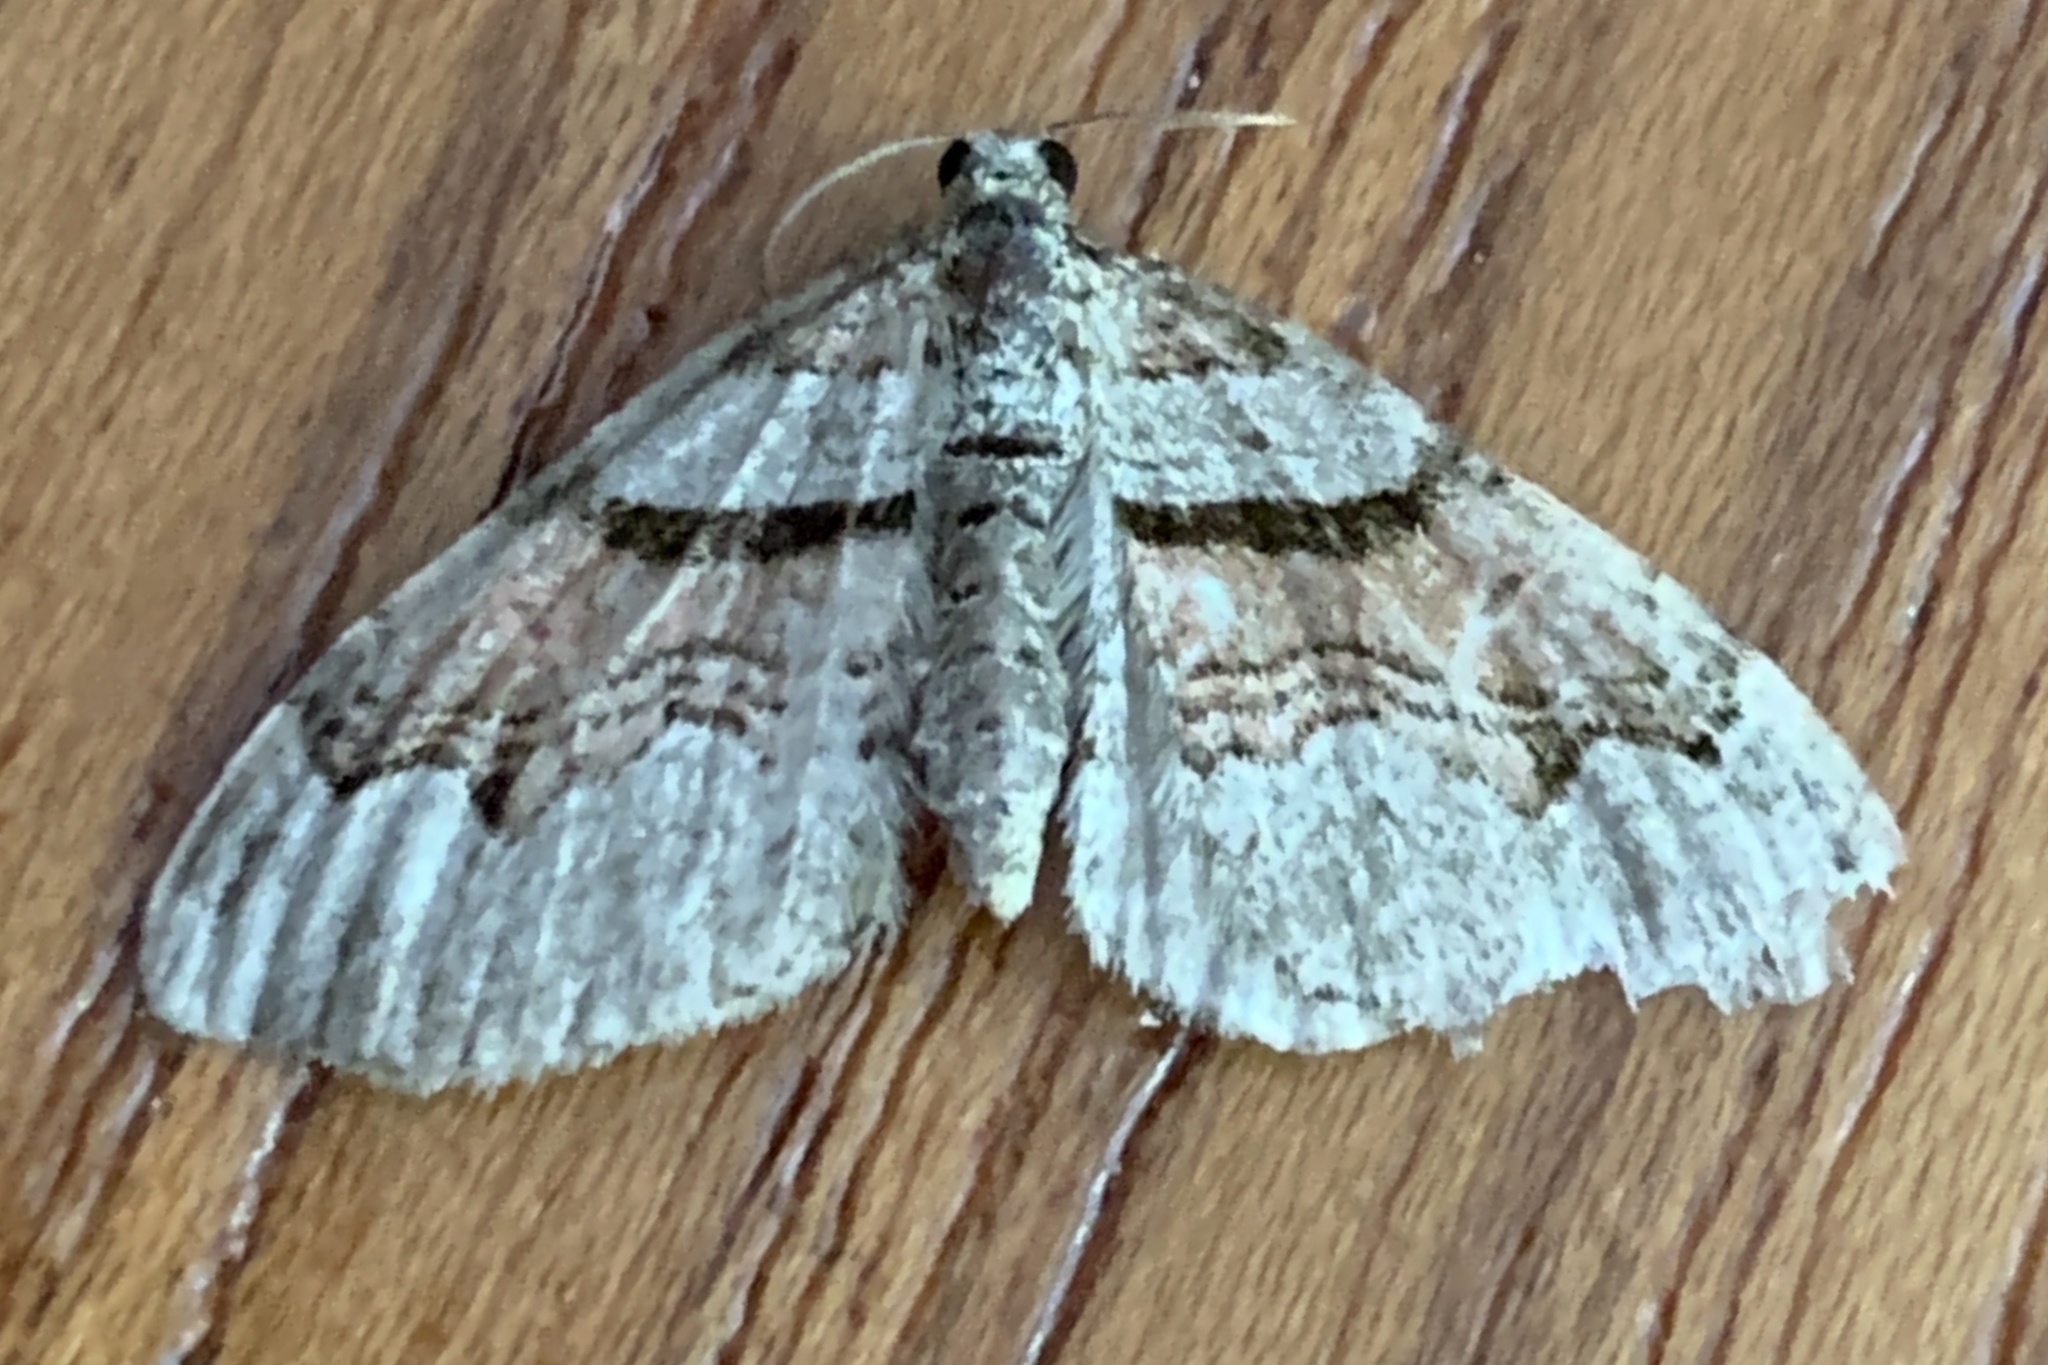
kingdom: Animalia
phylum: Arthropoda
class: Insecta
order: Lepidoptera
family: Geometridae
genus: Xanthorhoe
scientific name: Xanthorhoe labradorensis
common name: Labrador carpet
